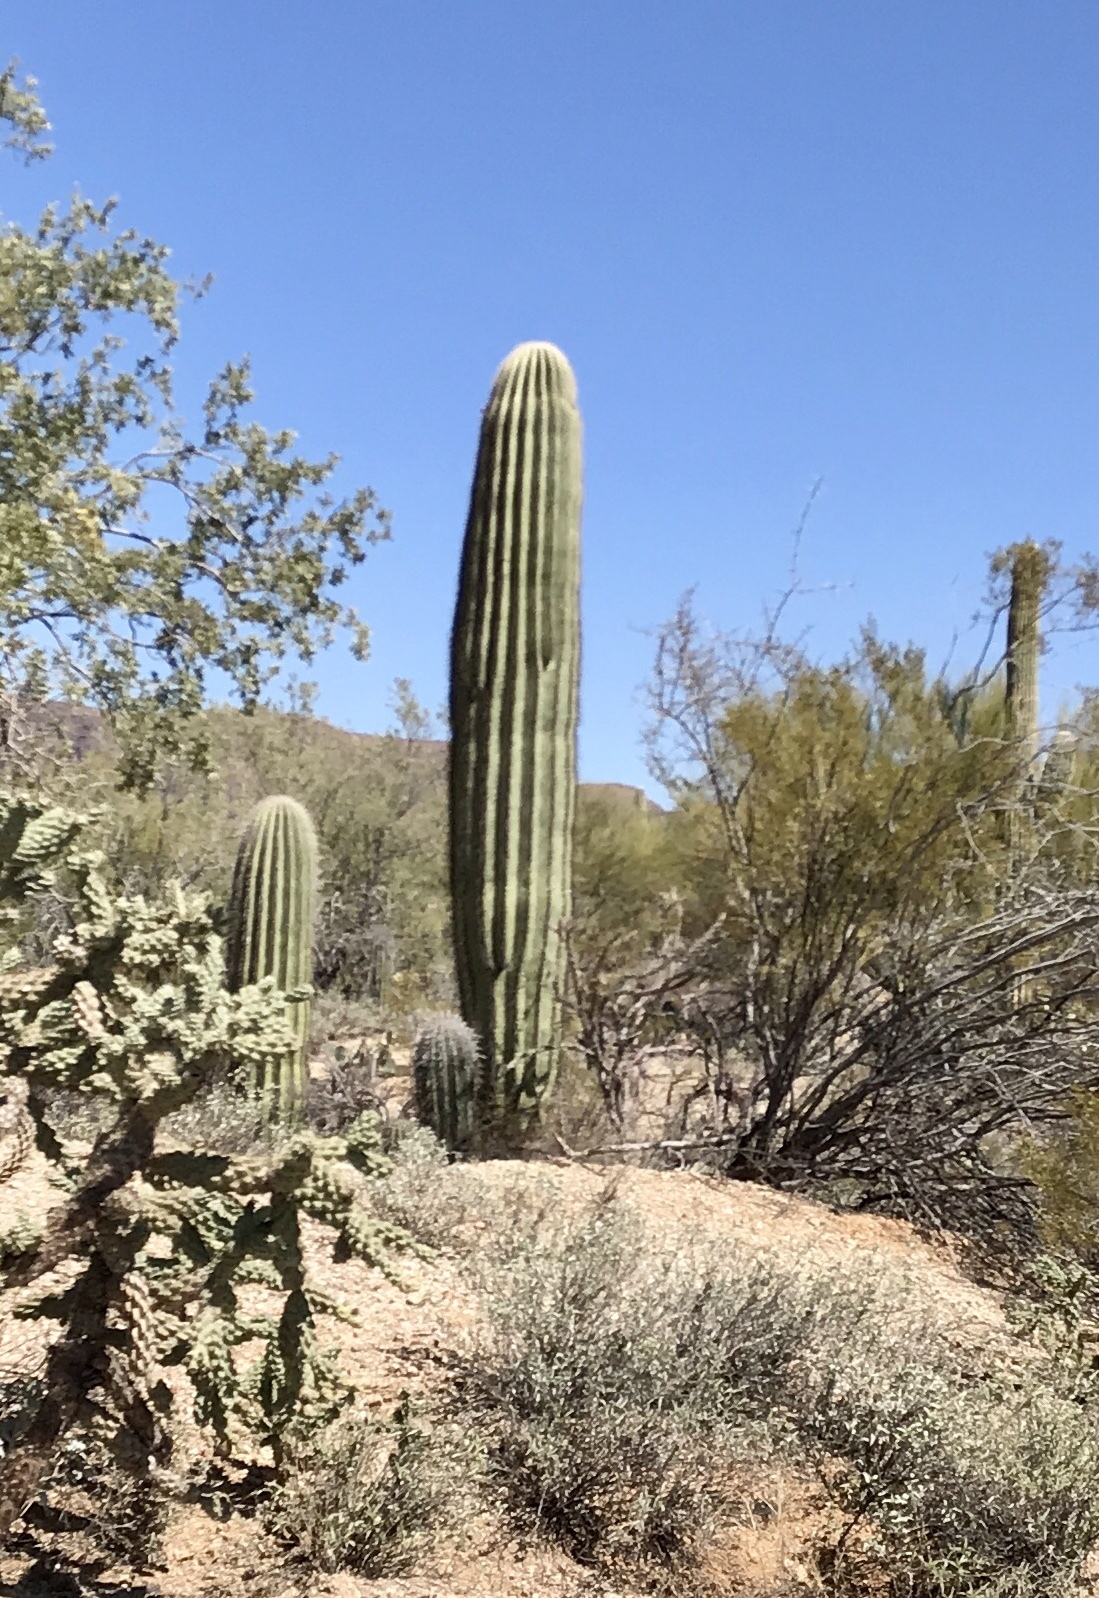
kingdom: Plantae
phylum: Tracheophyta
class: Magnoliopsida
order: Caryophyllales
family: Cactaceae
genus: Carnegiea
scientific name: Carnegiea gigantea
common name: Saguaro
